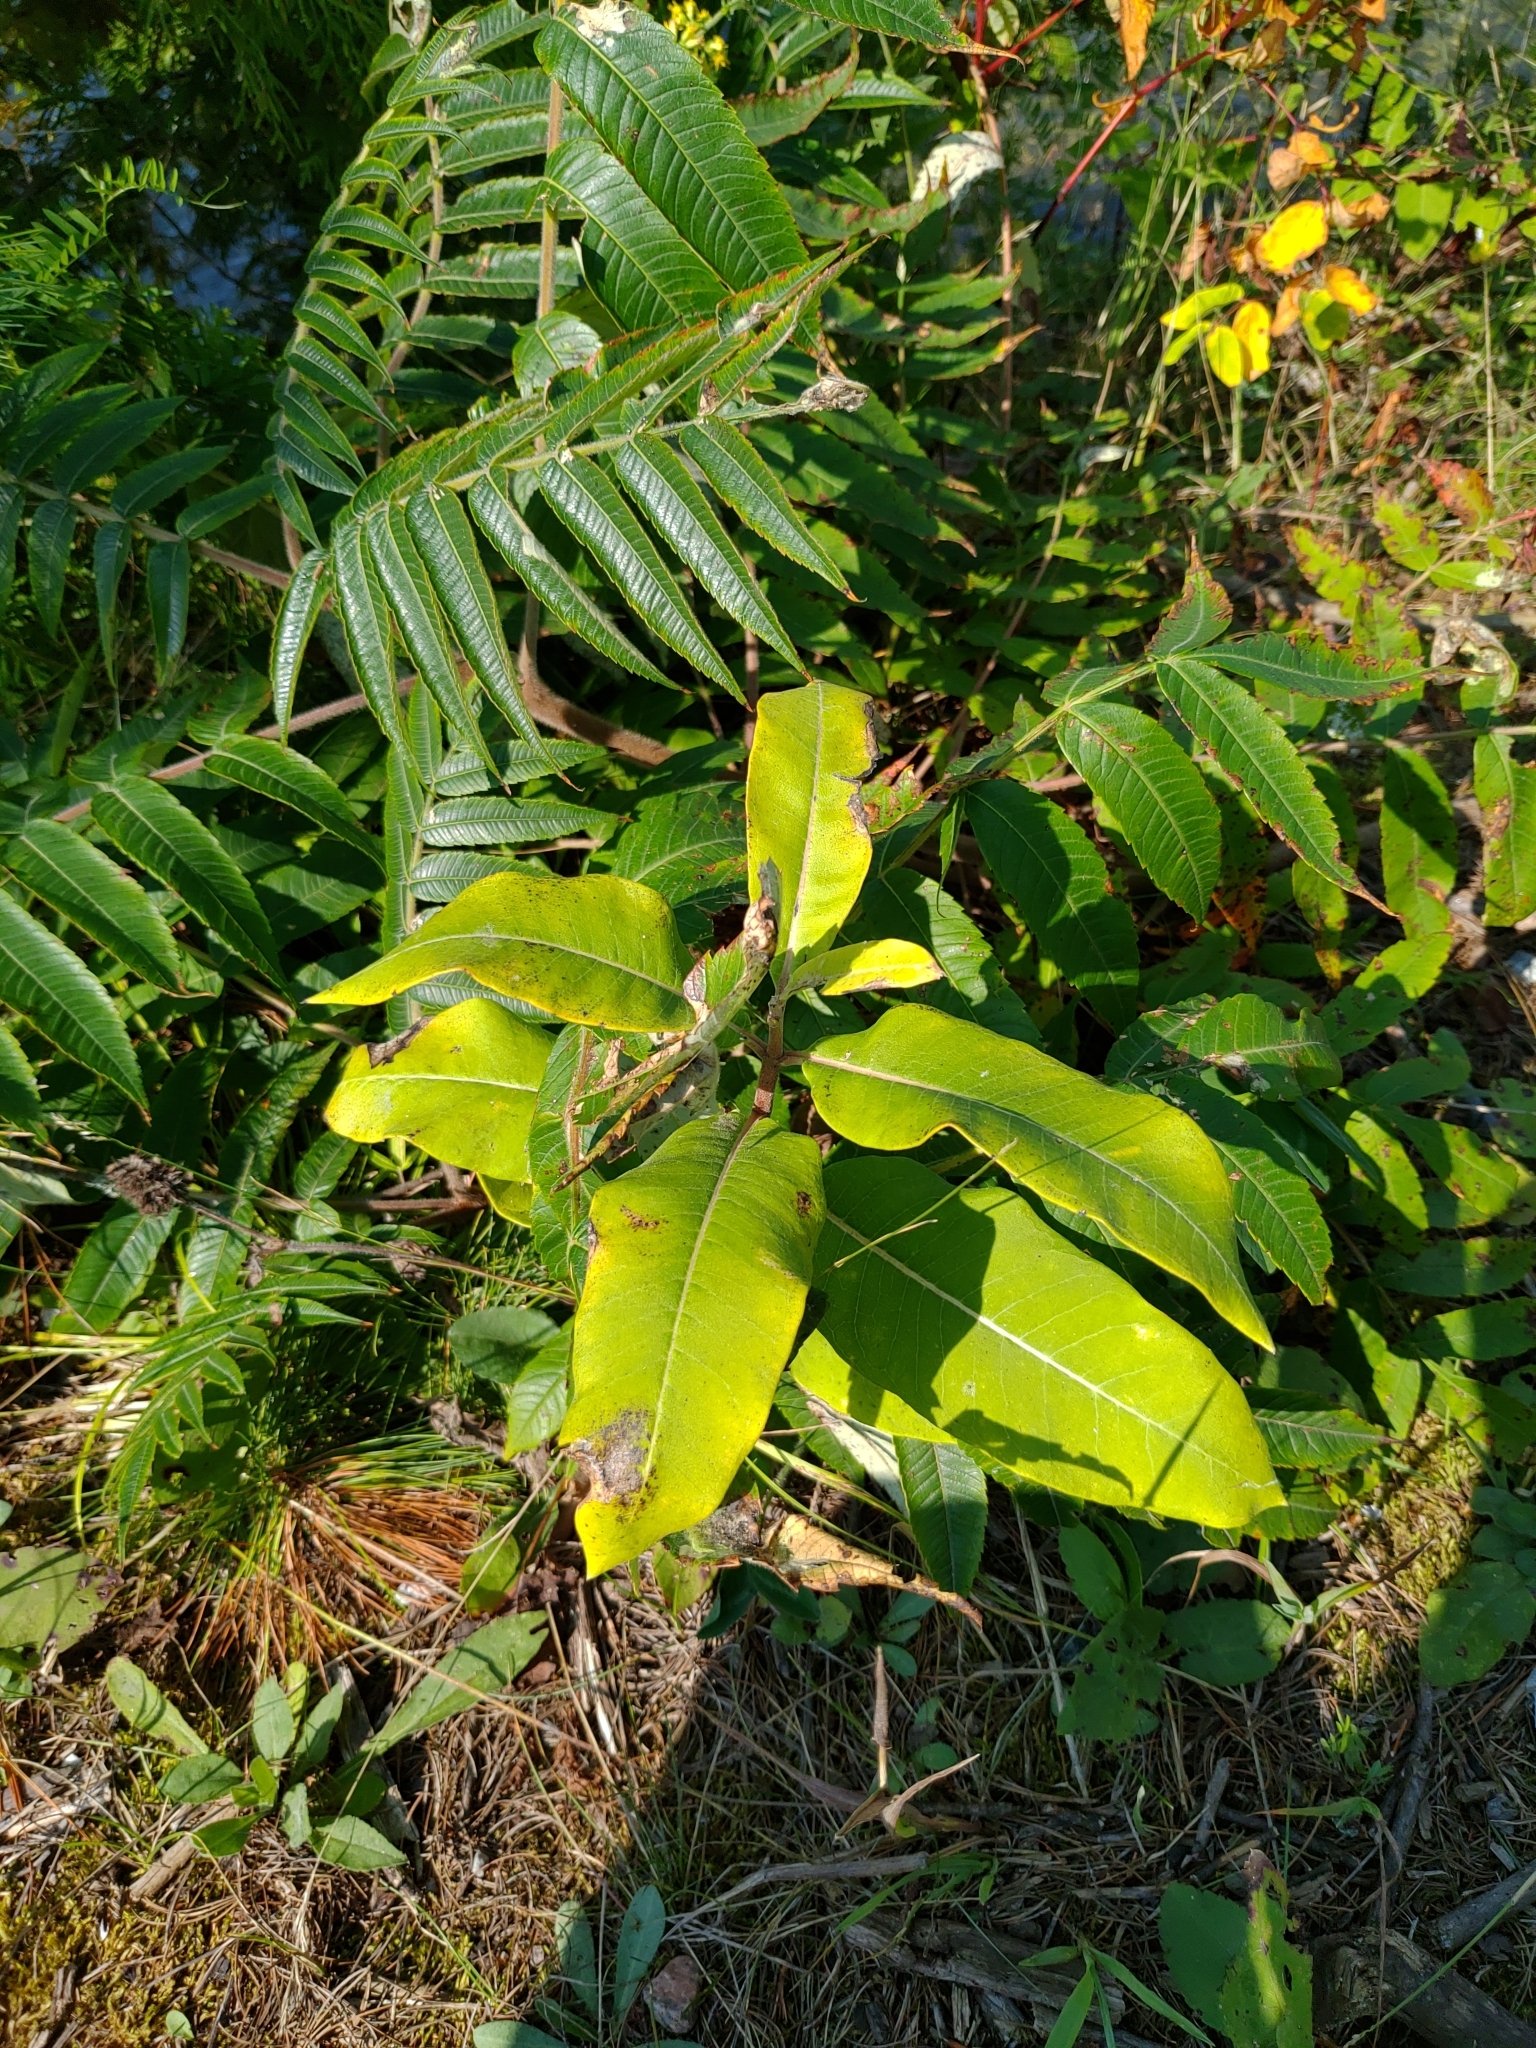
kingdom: Plantae
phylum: Tracheophyta
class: Magnoliopsida
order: Gentianales
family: Apocynaceae
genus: Asclepias
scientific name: Asclepias syriaca
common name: Common milkweed
